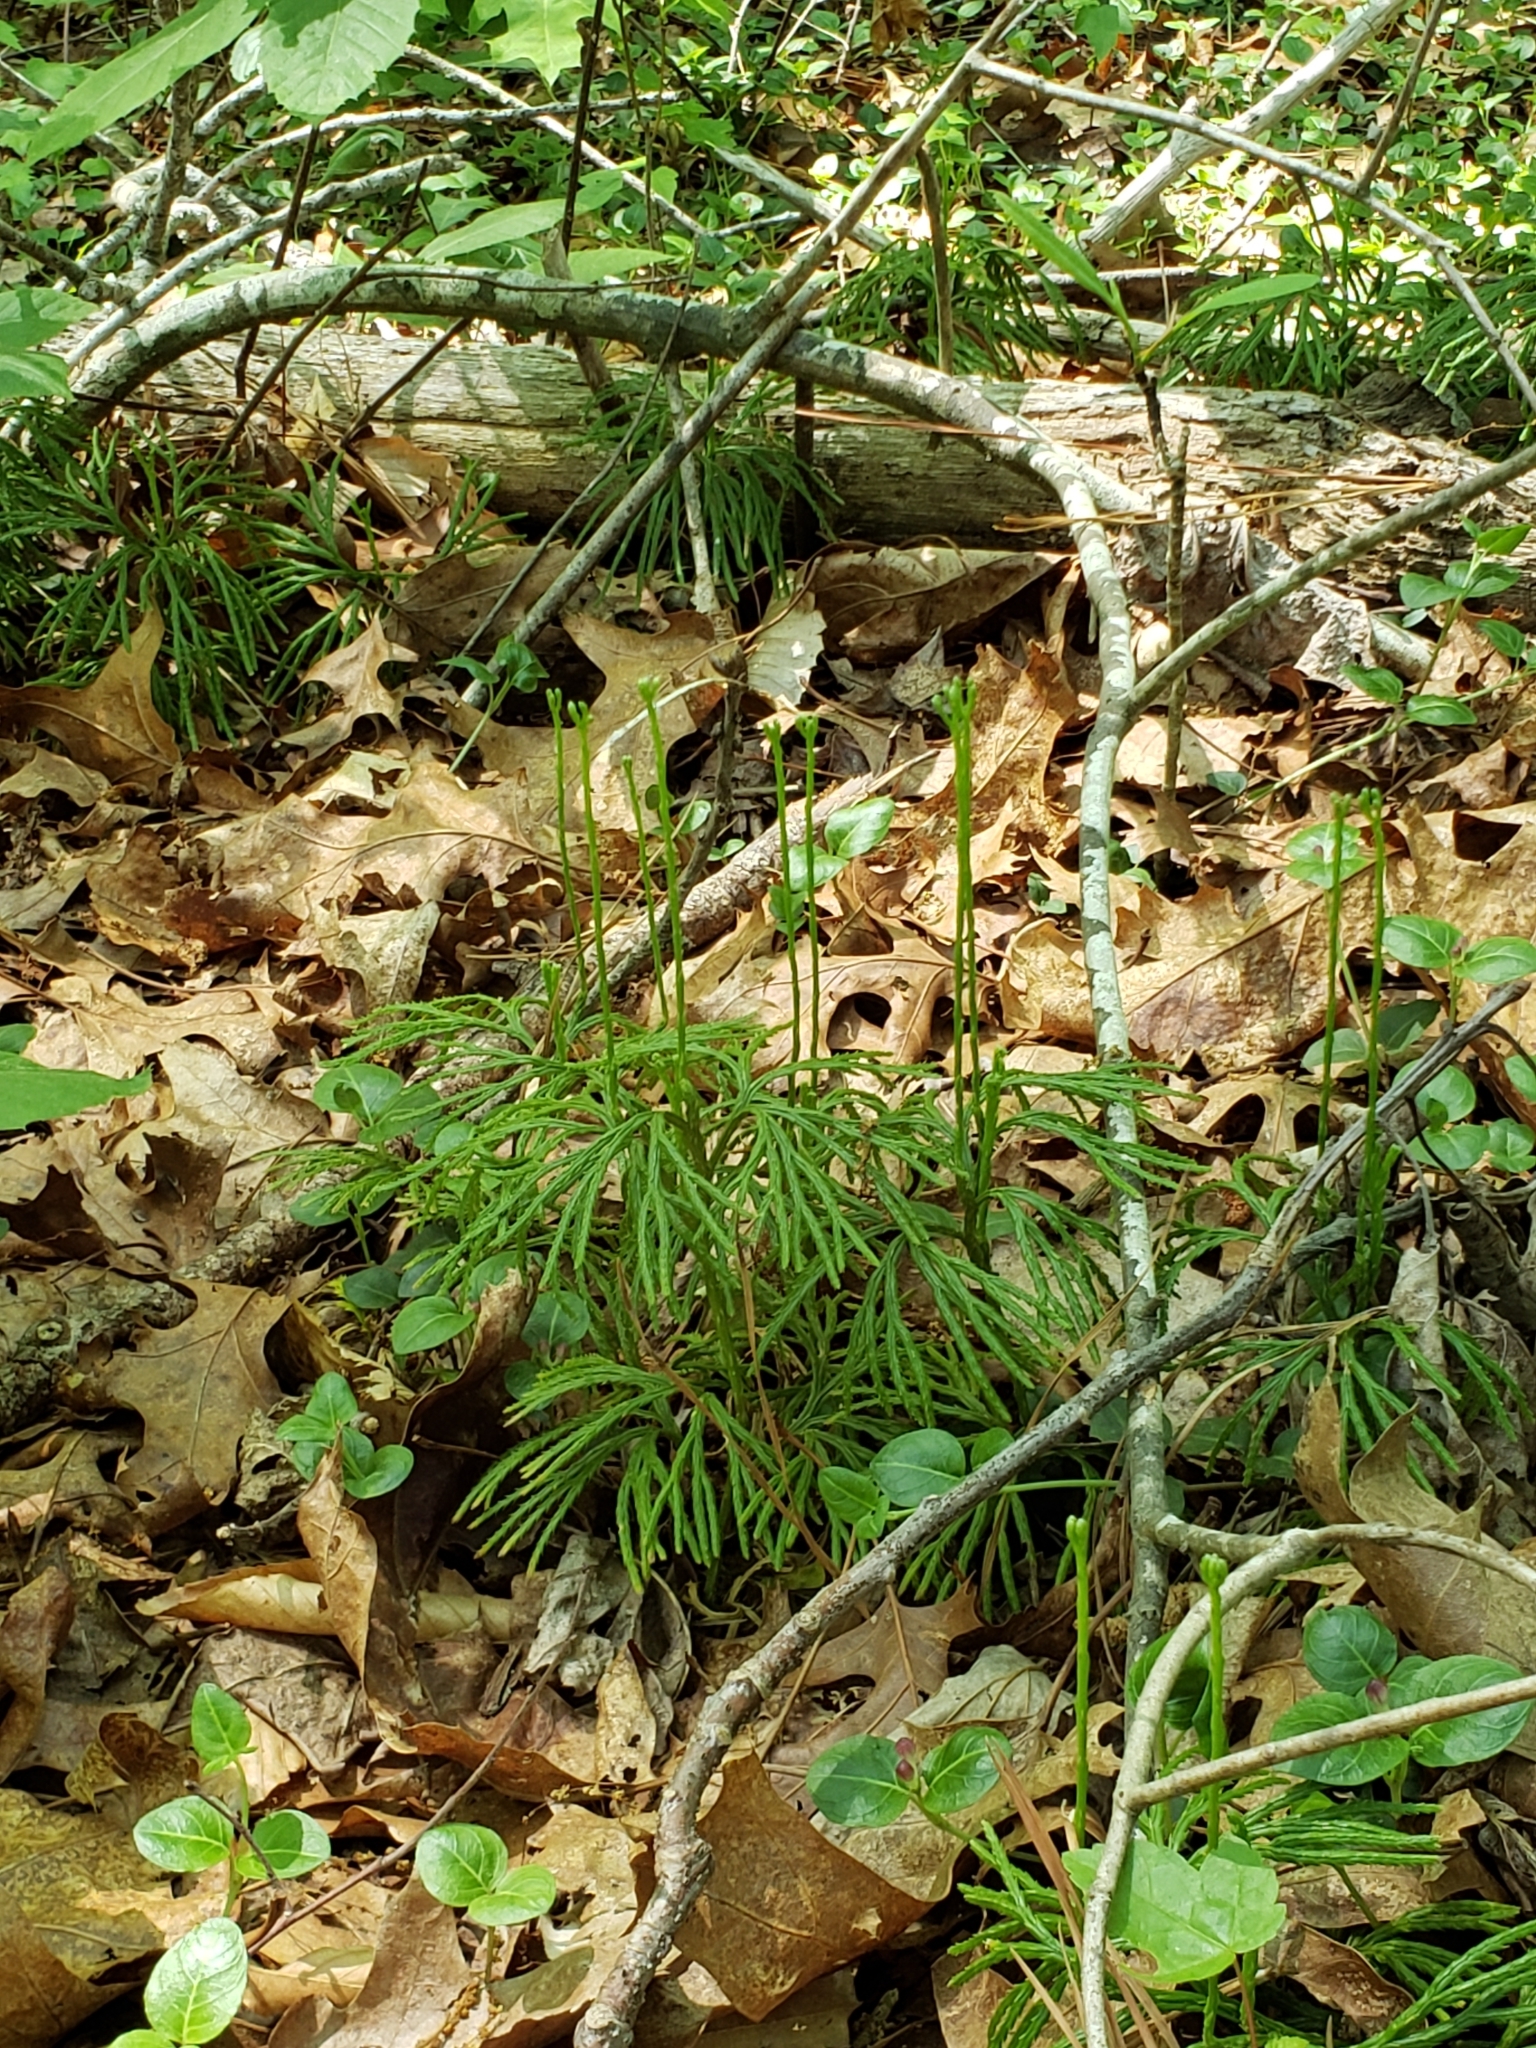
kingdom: Plantae
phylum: Tracheophyta
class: Lycopodiopsida
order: Lycopodiales
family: Lycopodiaceae
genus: Diphasiastrum
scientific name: Diphasiastrum digitatum
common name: Southern running-pine
